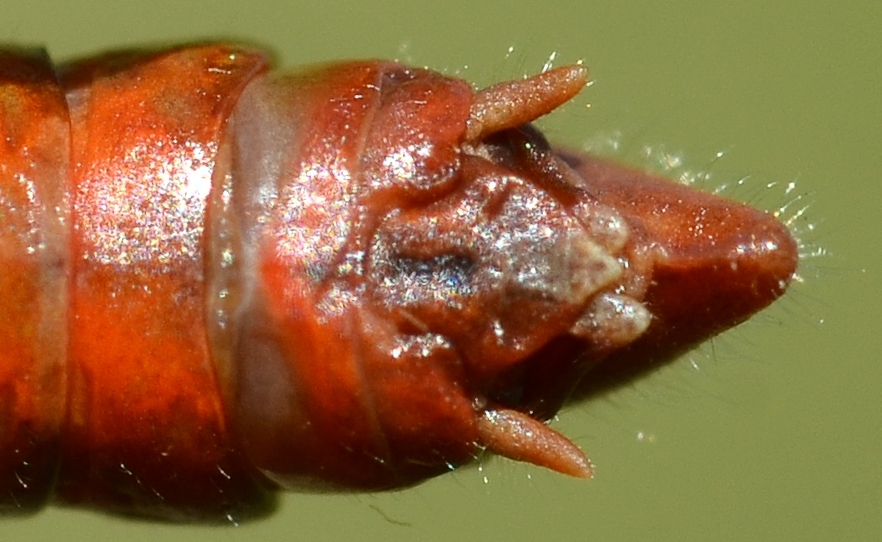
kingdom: Animalia
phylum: Arthropoda
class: Insecta
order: Orthoptera
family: Acrididae
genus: Stenobothrus
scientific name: Stenobothrus lineatus
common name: Stripe-winged grasshopper
